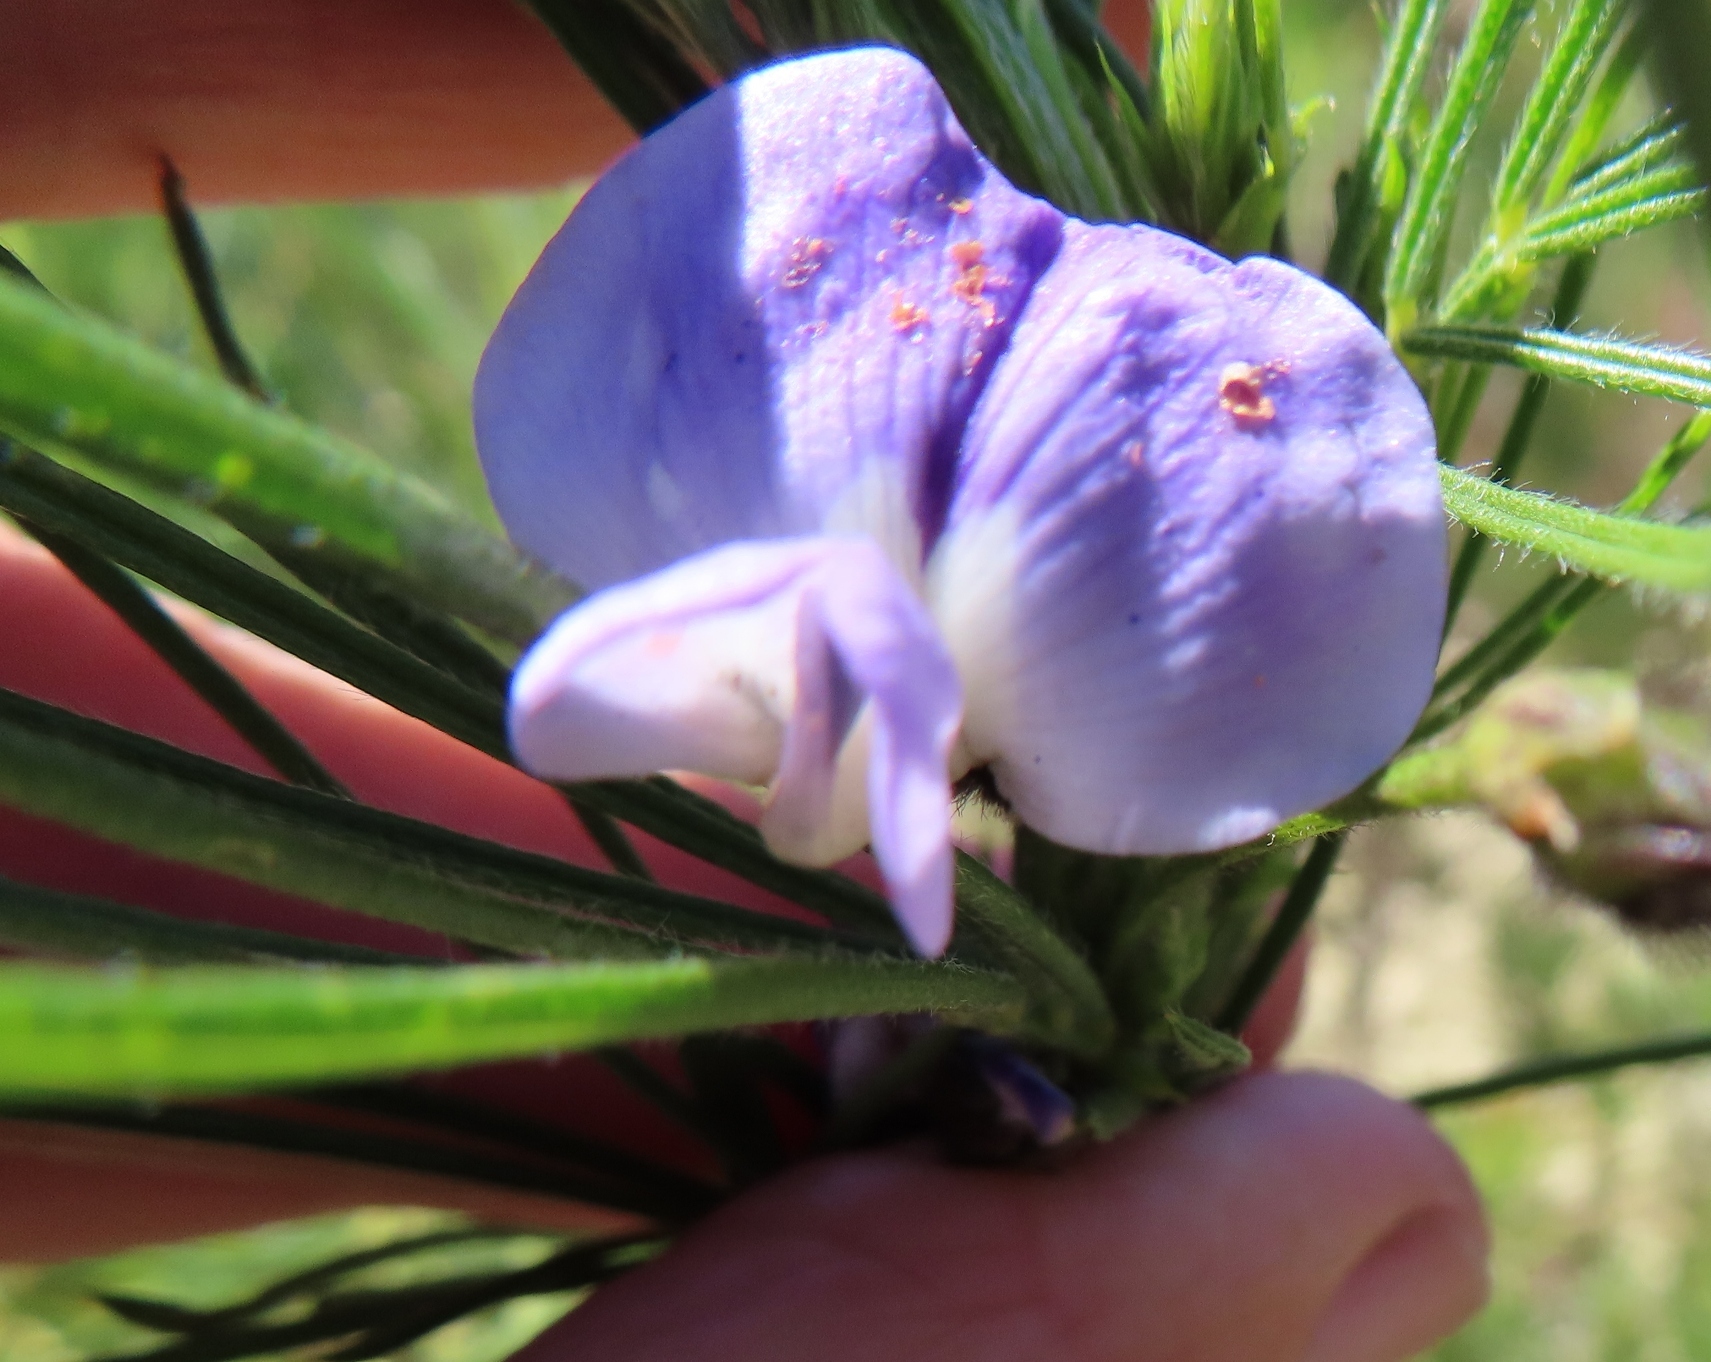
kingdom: Plantae
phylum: Tracheophyta
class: Magnoliopsida
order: Fabales
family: Fabaceae
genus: Psoralea
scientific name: Psoralea arborea
